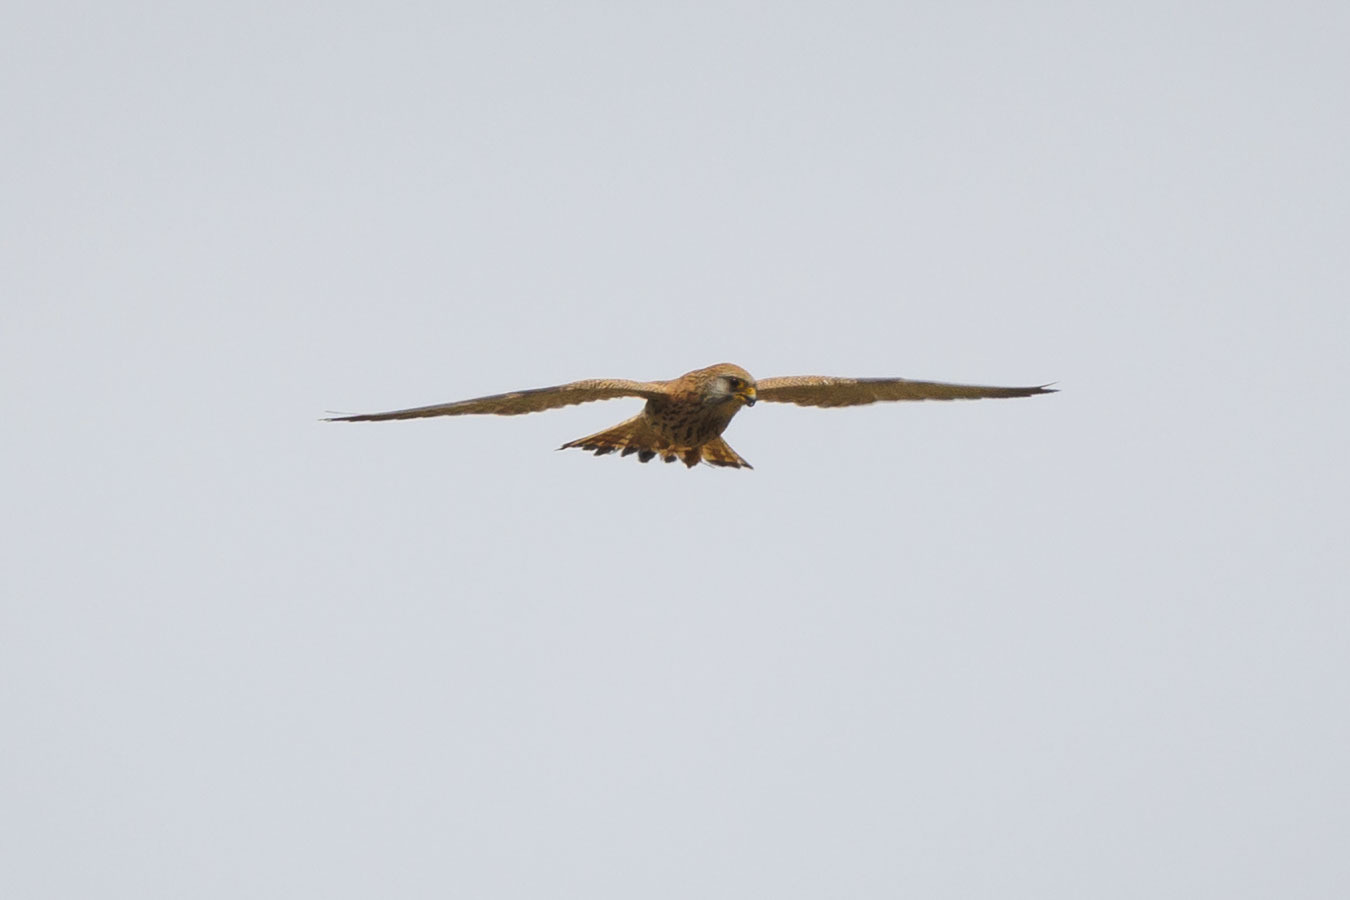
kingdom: Animalia
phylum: Chordata
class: Aves
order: Falconiformes
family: Falconidae
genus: Falco
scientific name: Falco naumanni
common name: Lesser kestrel
